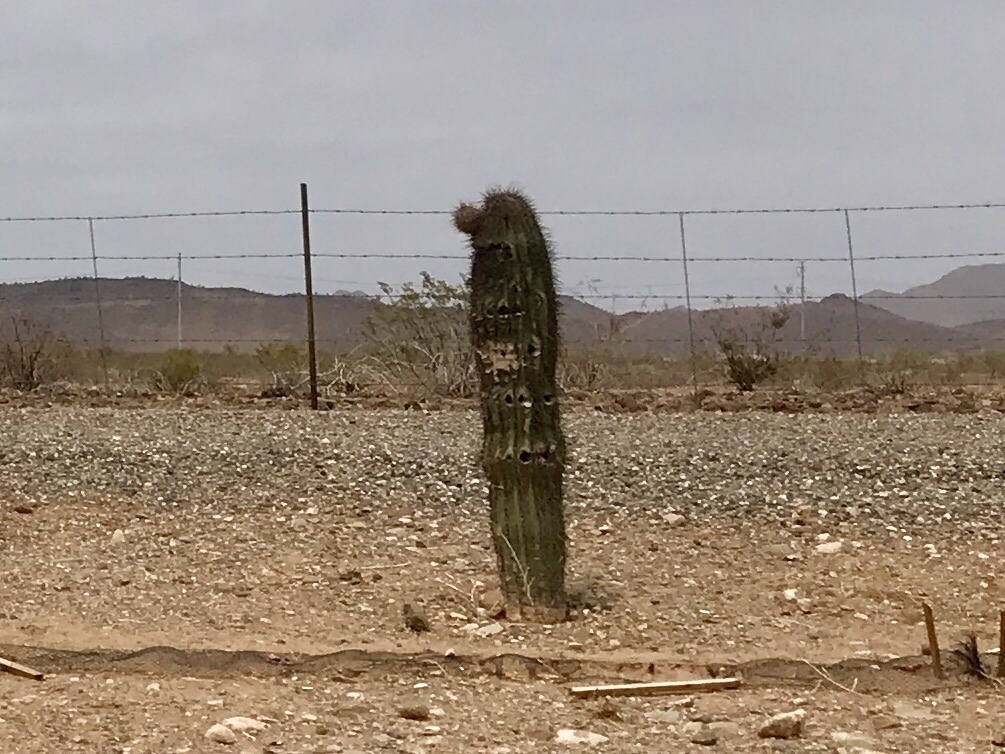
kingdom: Plantae
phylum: Tracheophyta
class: Magnoliopsida
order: Caryophyllales
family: Cactaceae
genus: Carnegiea
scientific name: Carnegiea gigantea
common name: Saguaro
